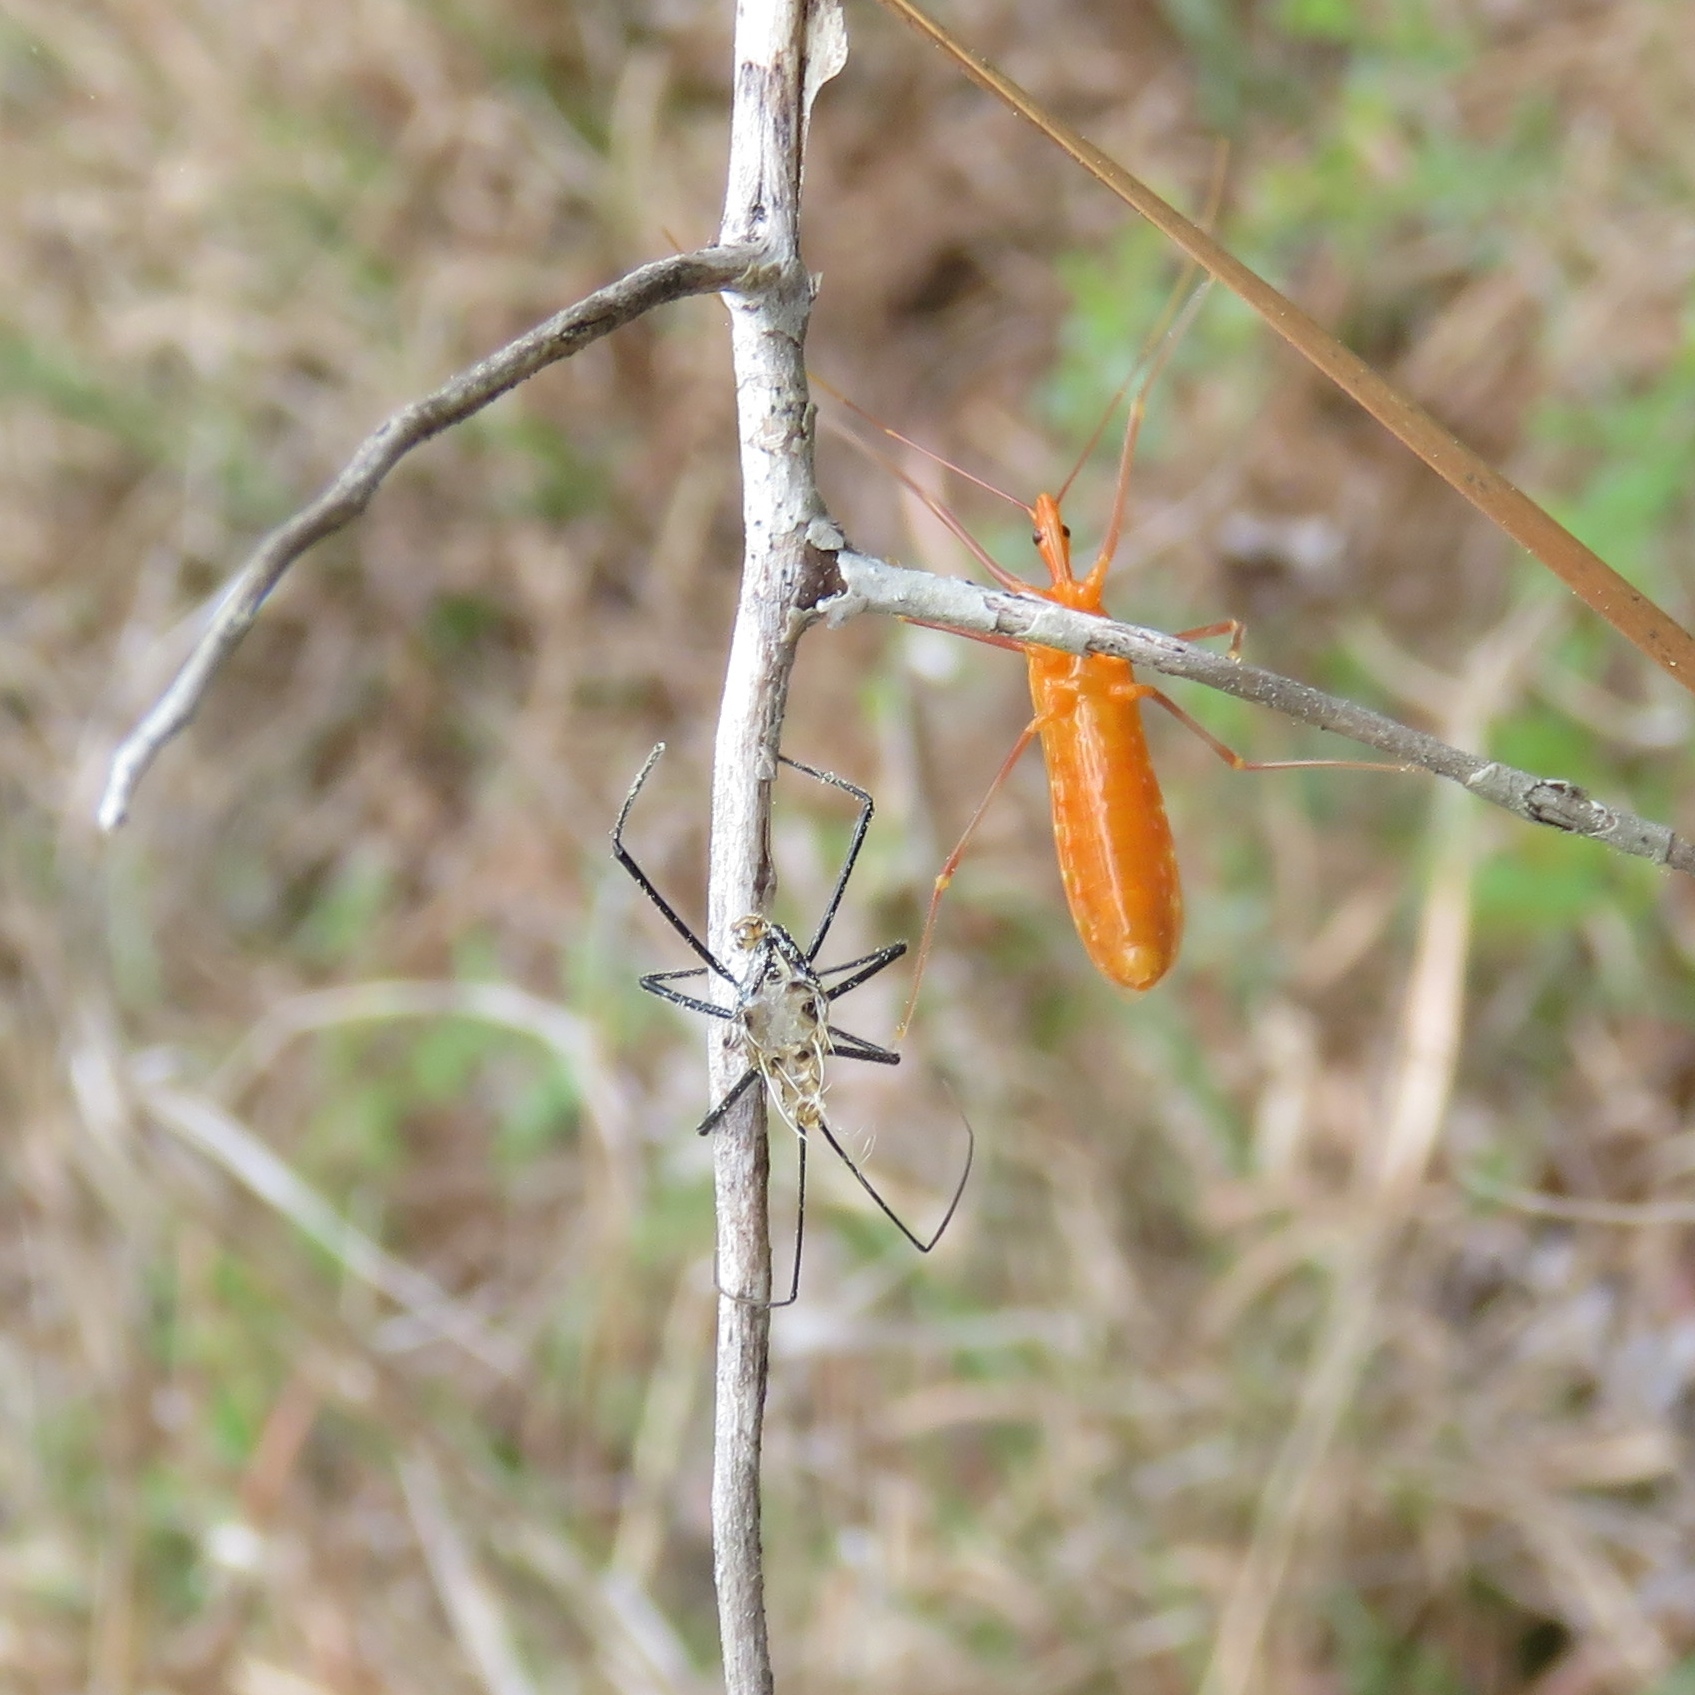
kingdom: Animalia
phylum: Arthropoda
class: Insecta
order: Hemiptera
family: Reduviidae
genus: Zelus
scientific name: Zelus longipes
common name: Milkweed assassin bug
